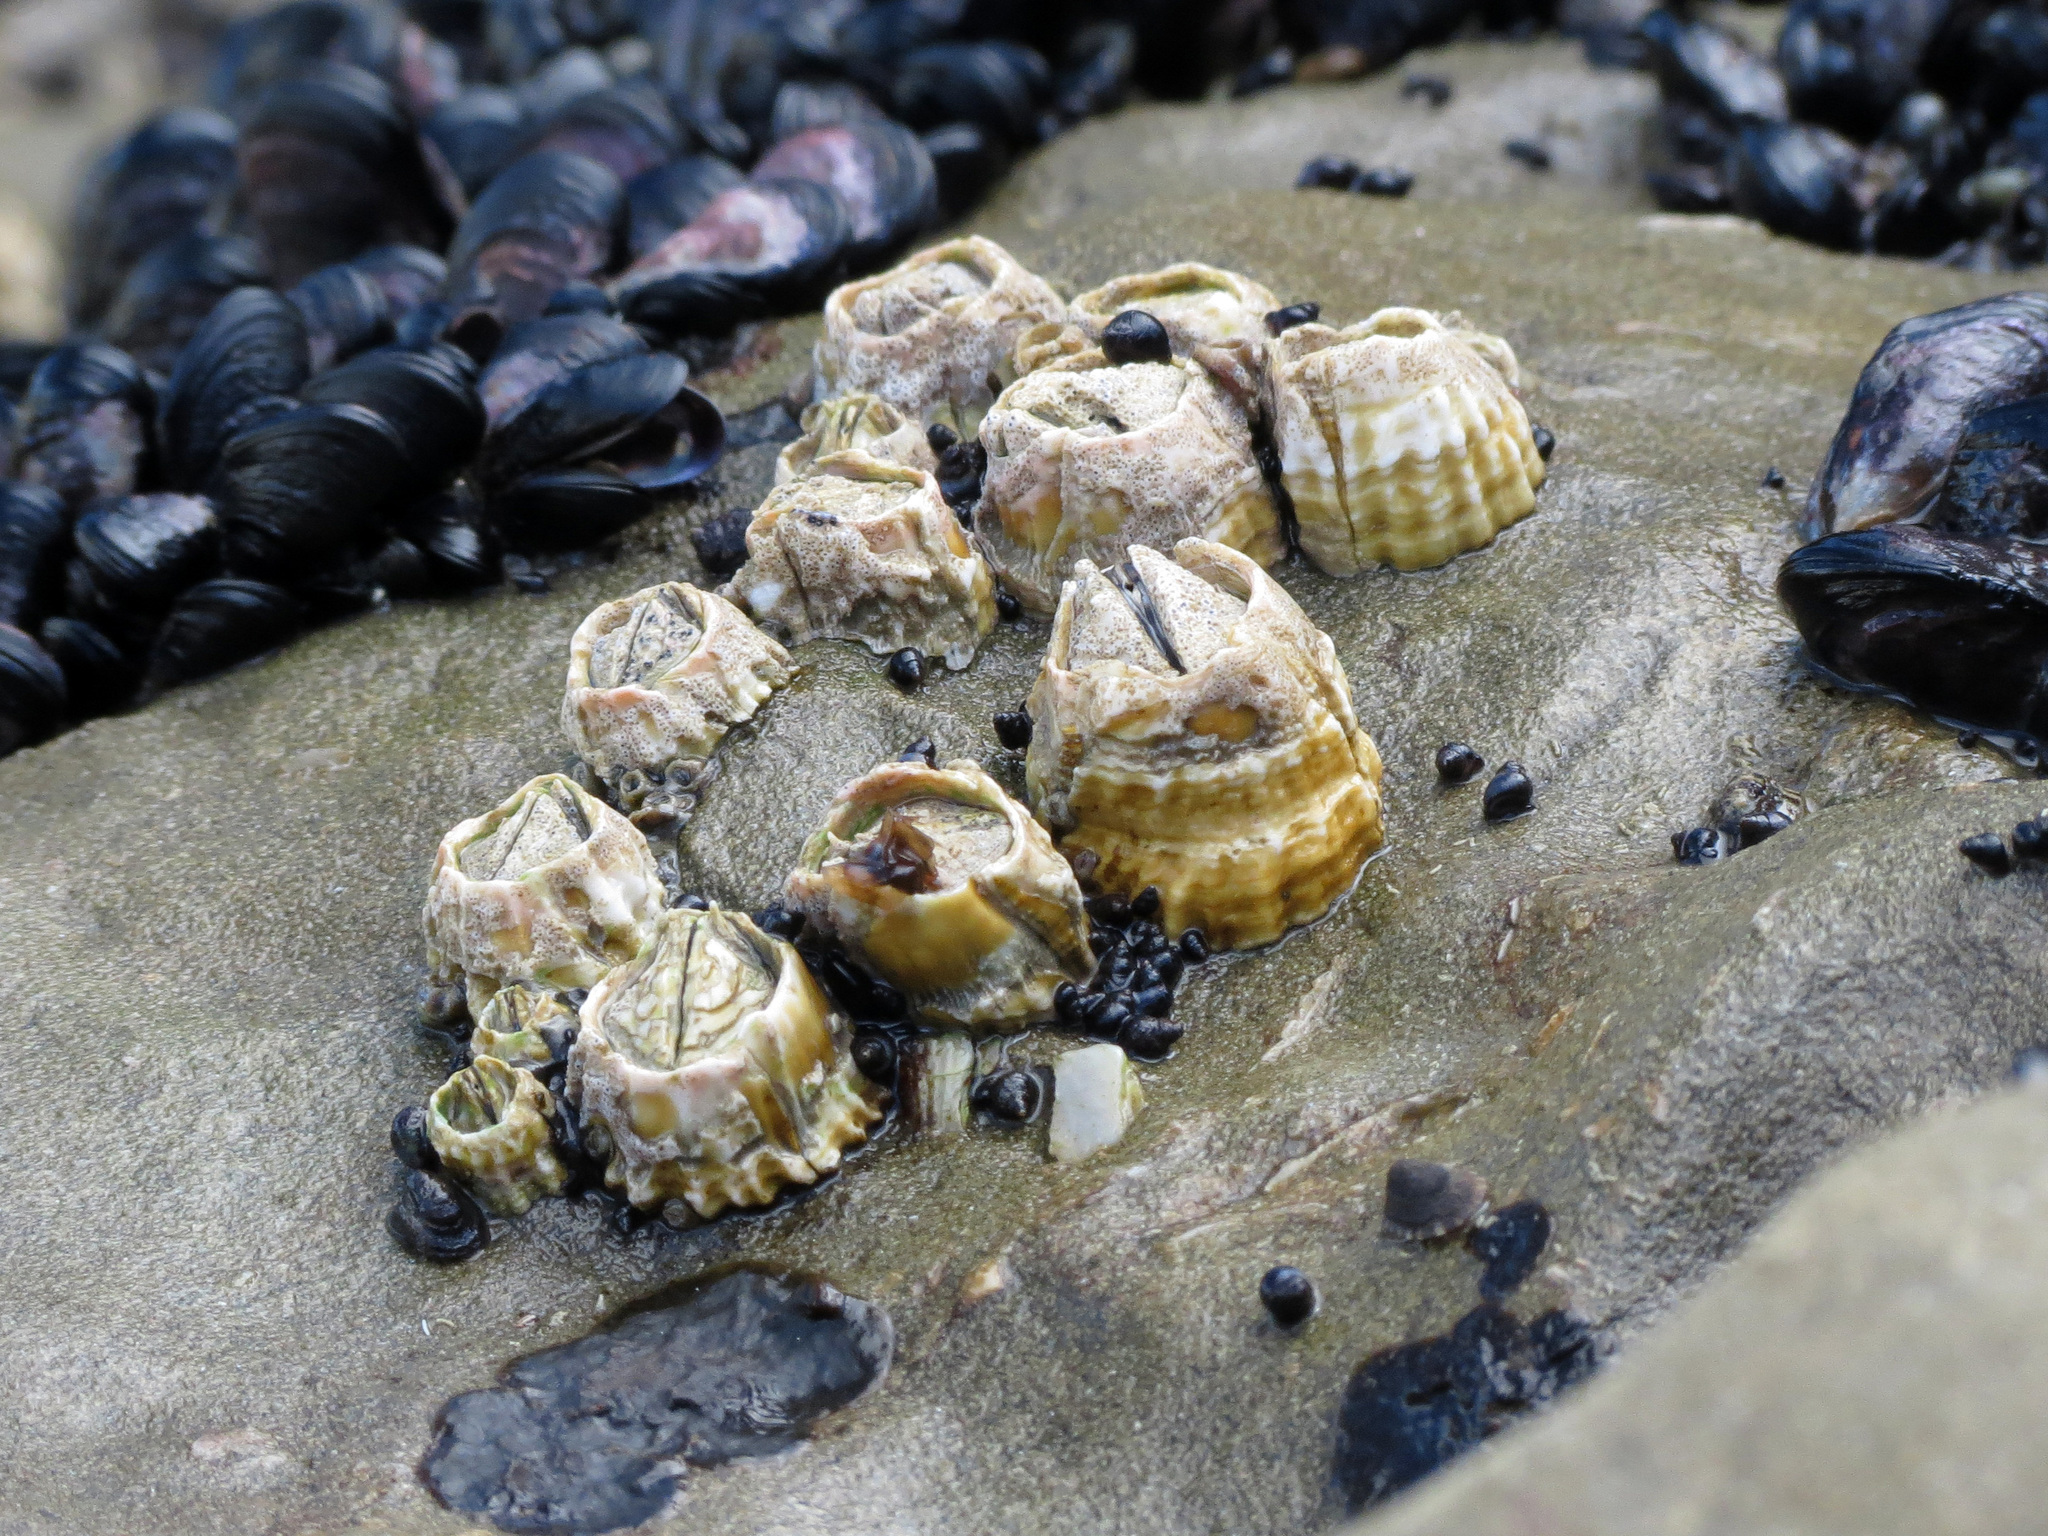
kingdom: Animalia
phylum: Arthropoda
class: Maxillopoda
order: Sessilia
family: Tetraclitidae
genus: Epopella
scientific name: Epopella plicata
